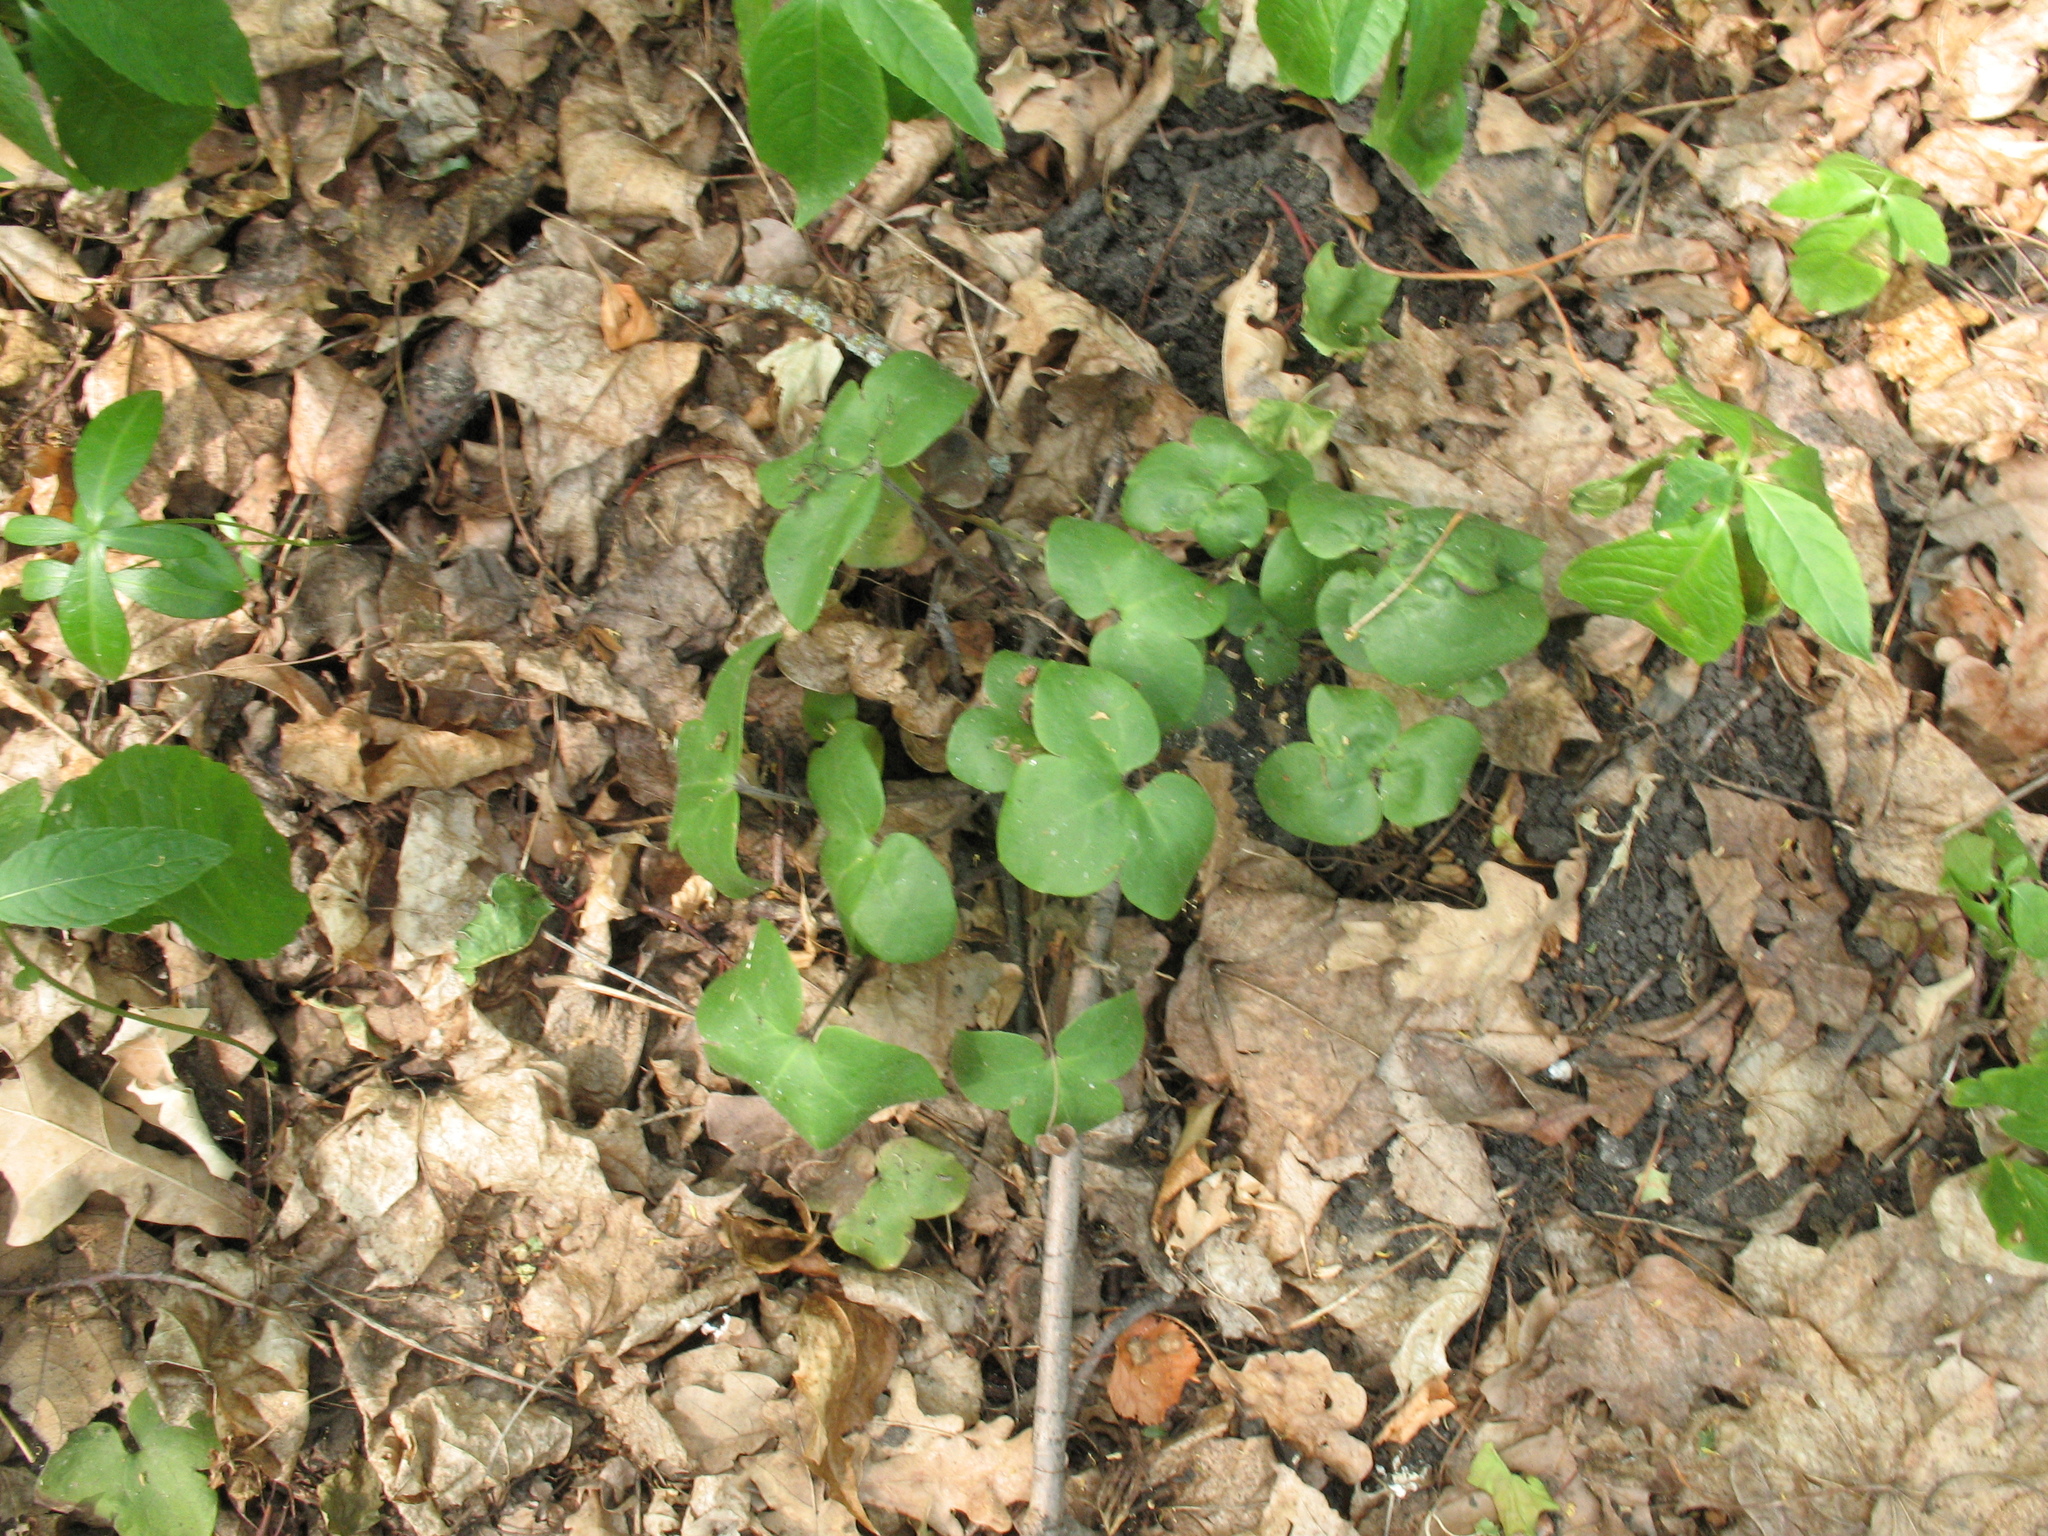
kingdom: Plantae
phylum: Tracheophyta
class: Magnoliopsida
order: Ranunculales
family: Ranunculaceae
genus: Hepatica
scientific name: Hepatica nobilis
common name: Liverleaf
